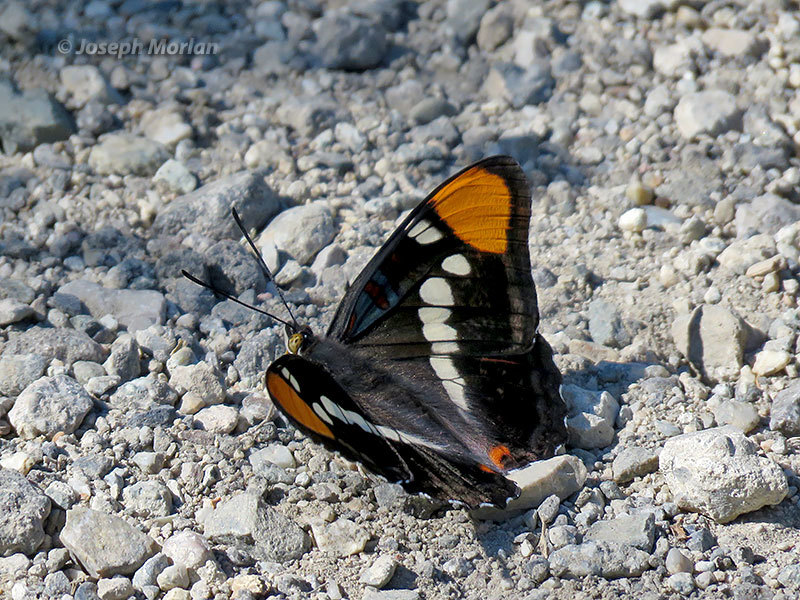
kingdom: Animalia
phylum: Arthropoda
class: Insecta
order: Lepidoptera
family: Nymphalidae
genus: Limenitis
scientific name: Limenitis bredowii
